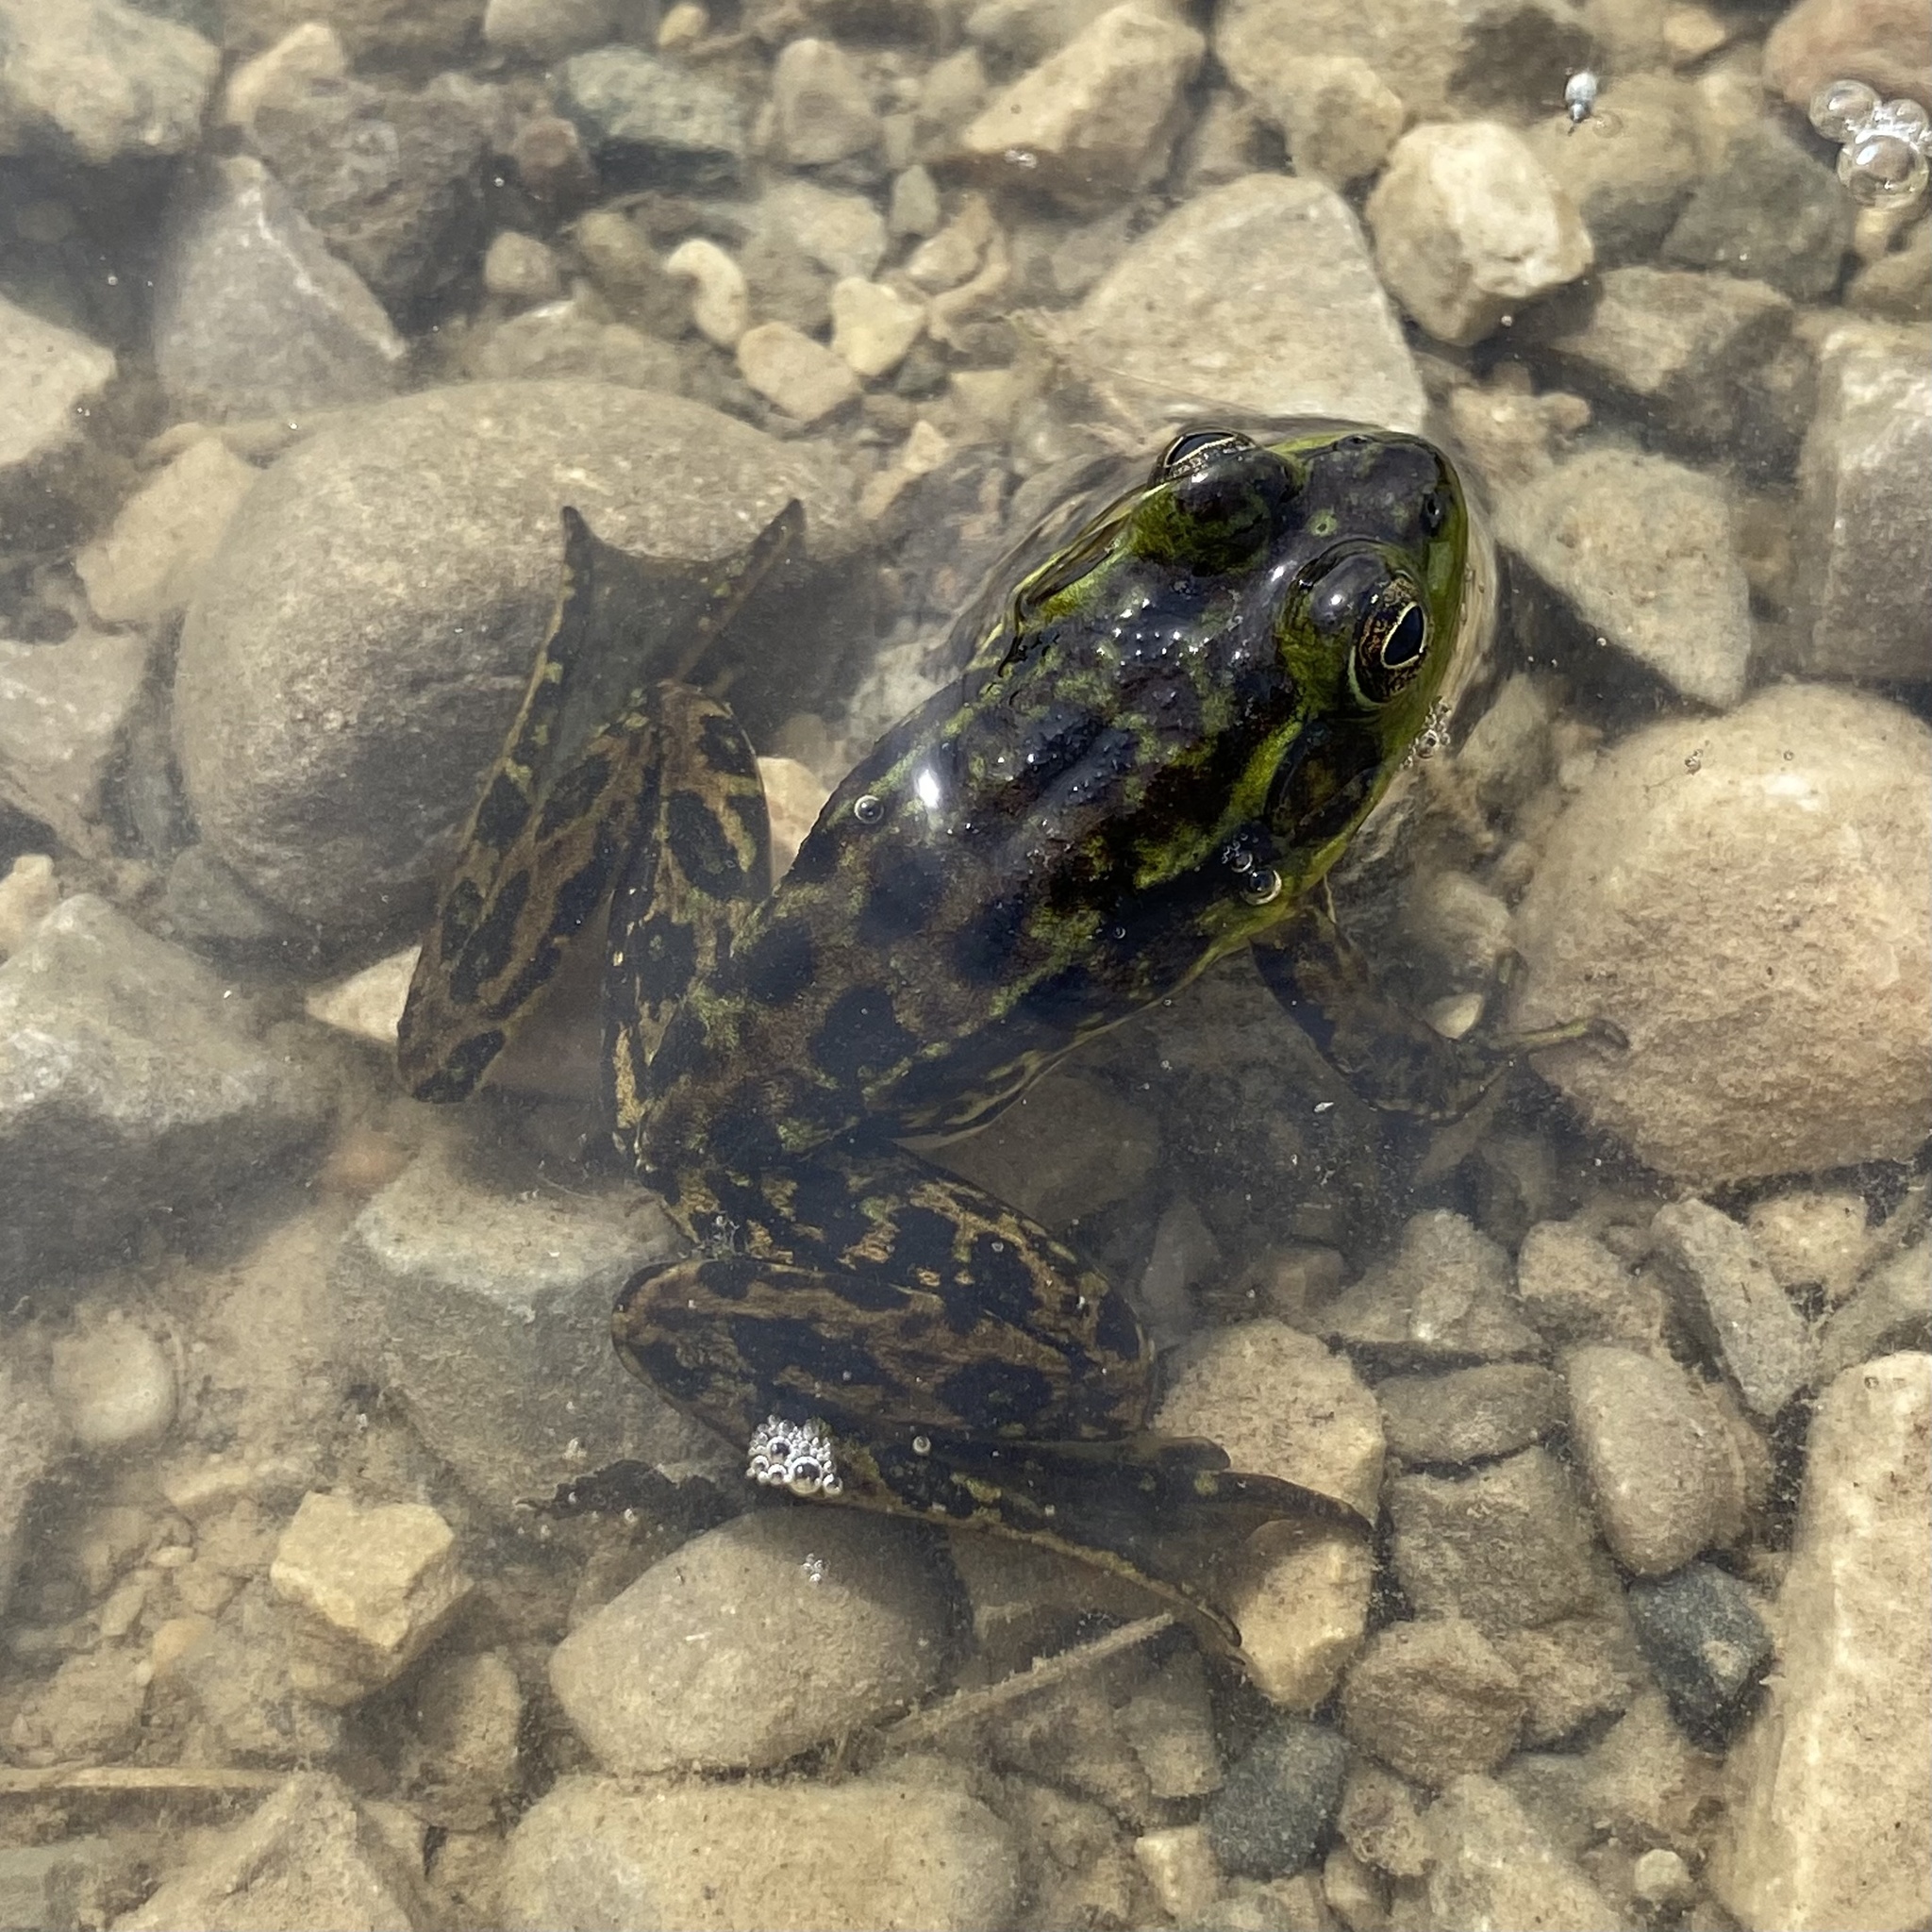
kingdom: Animalia
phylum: Chordata
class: Amphibia
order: Anura
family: Ranidae
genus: Lithobates
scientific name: Lithobates septentrionalis
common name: Mink frog
